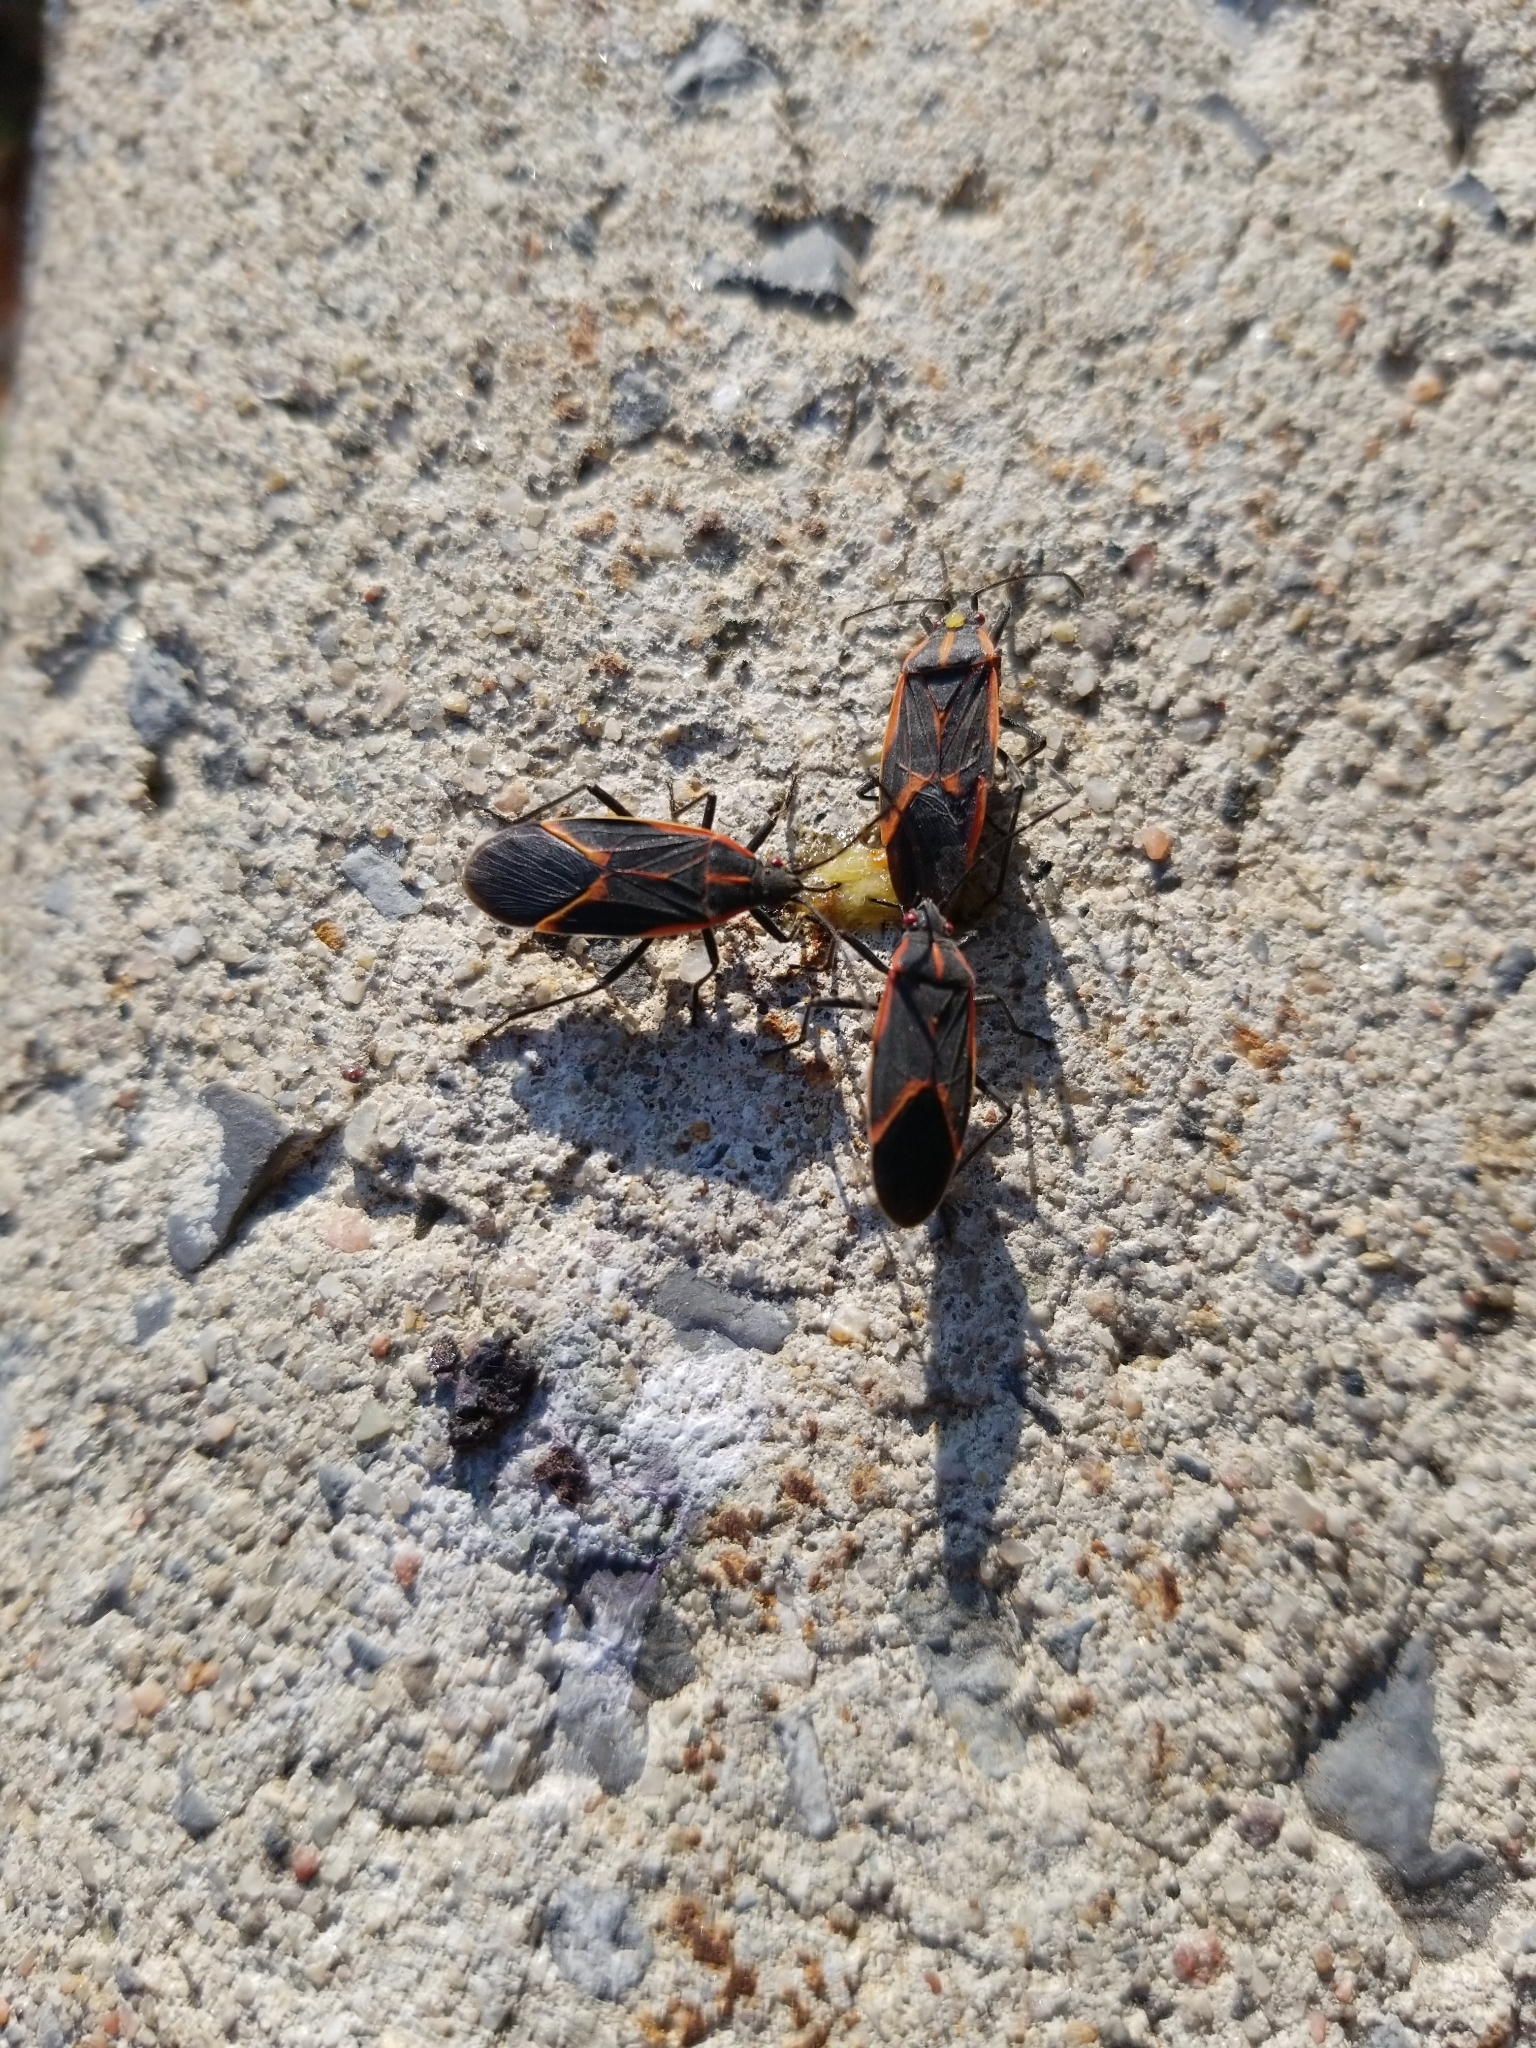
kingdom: Animalia
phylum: Arthropoda
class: Insecta
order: Hemiptera
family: Rhopalidae
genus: Boisea
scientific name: Boisea trivittata
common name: Boxelder bug
